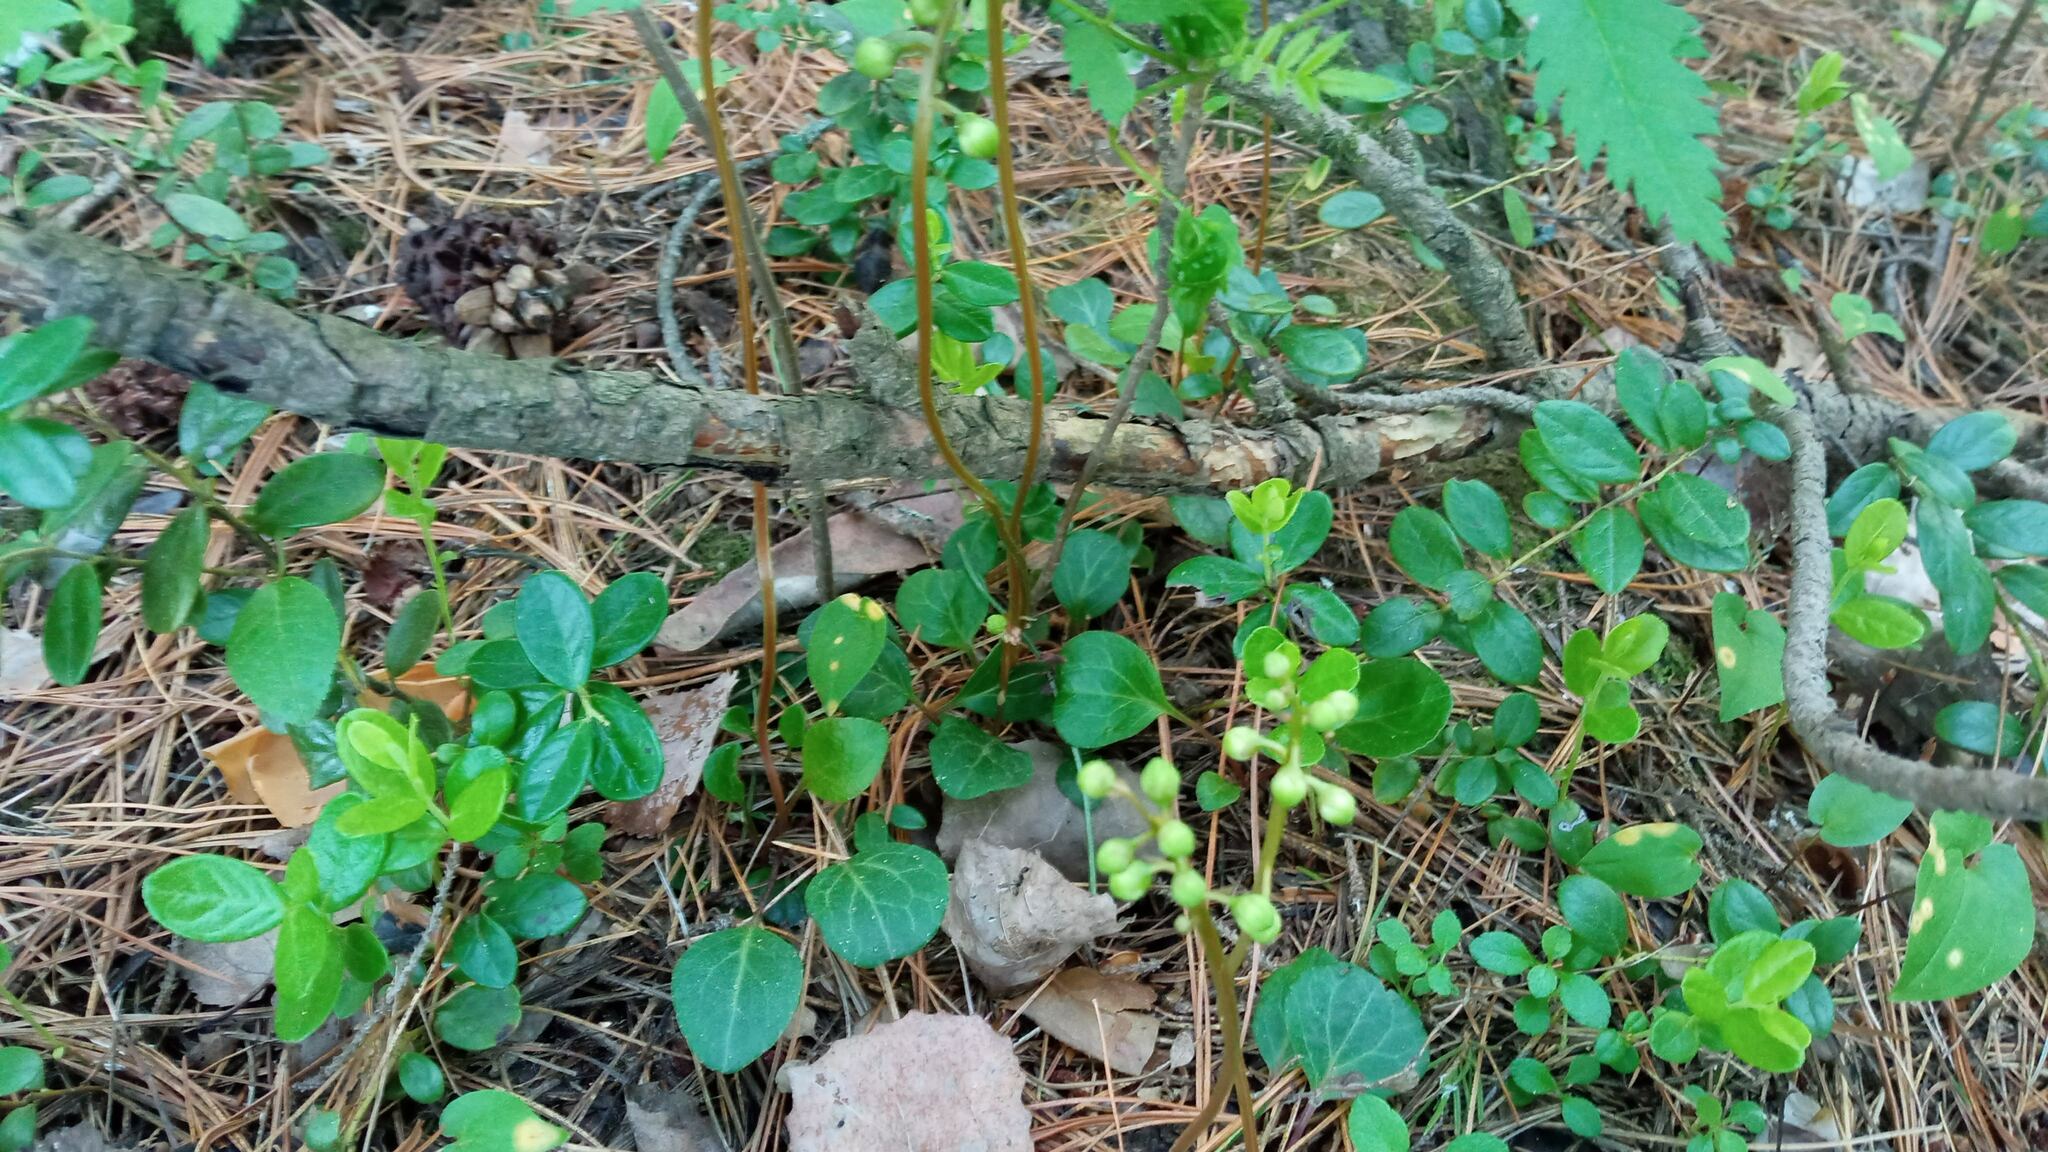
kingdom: Plantae
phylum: Tracheophyta
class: Magnoliopsida
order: Ericales
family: Ericaceae
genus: Pyrola
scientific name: Pyrola chlorantha
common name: Green wintergreen
